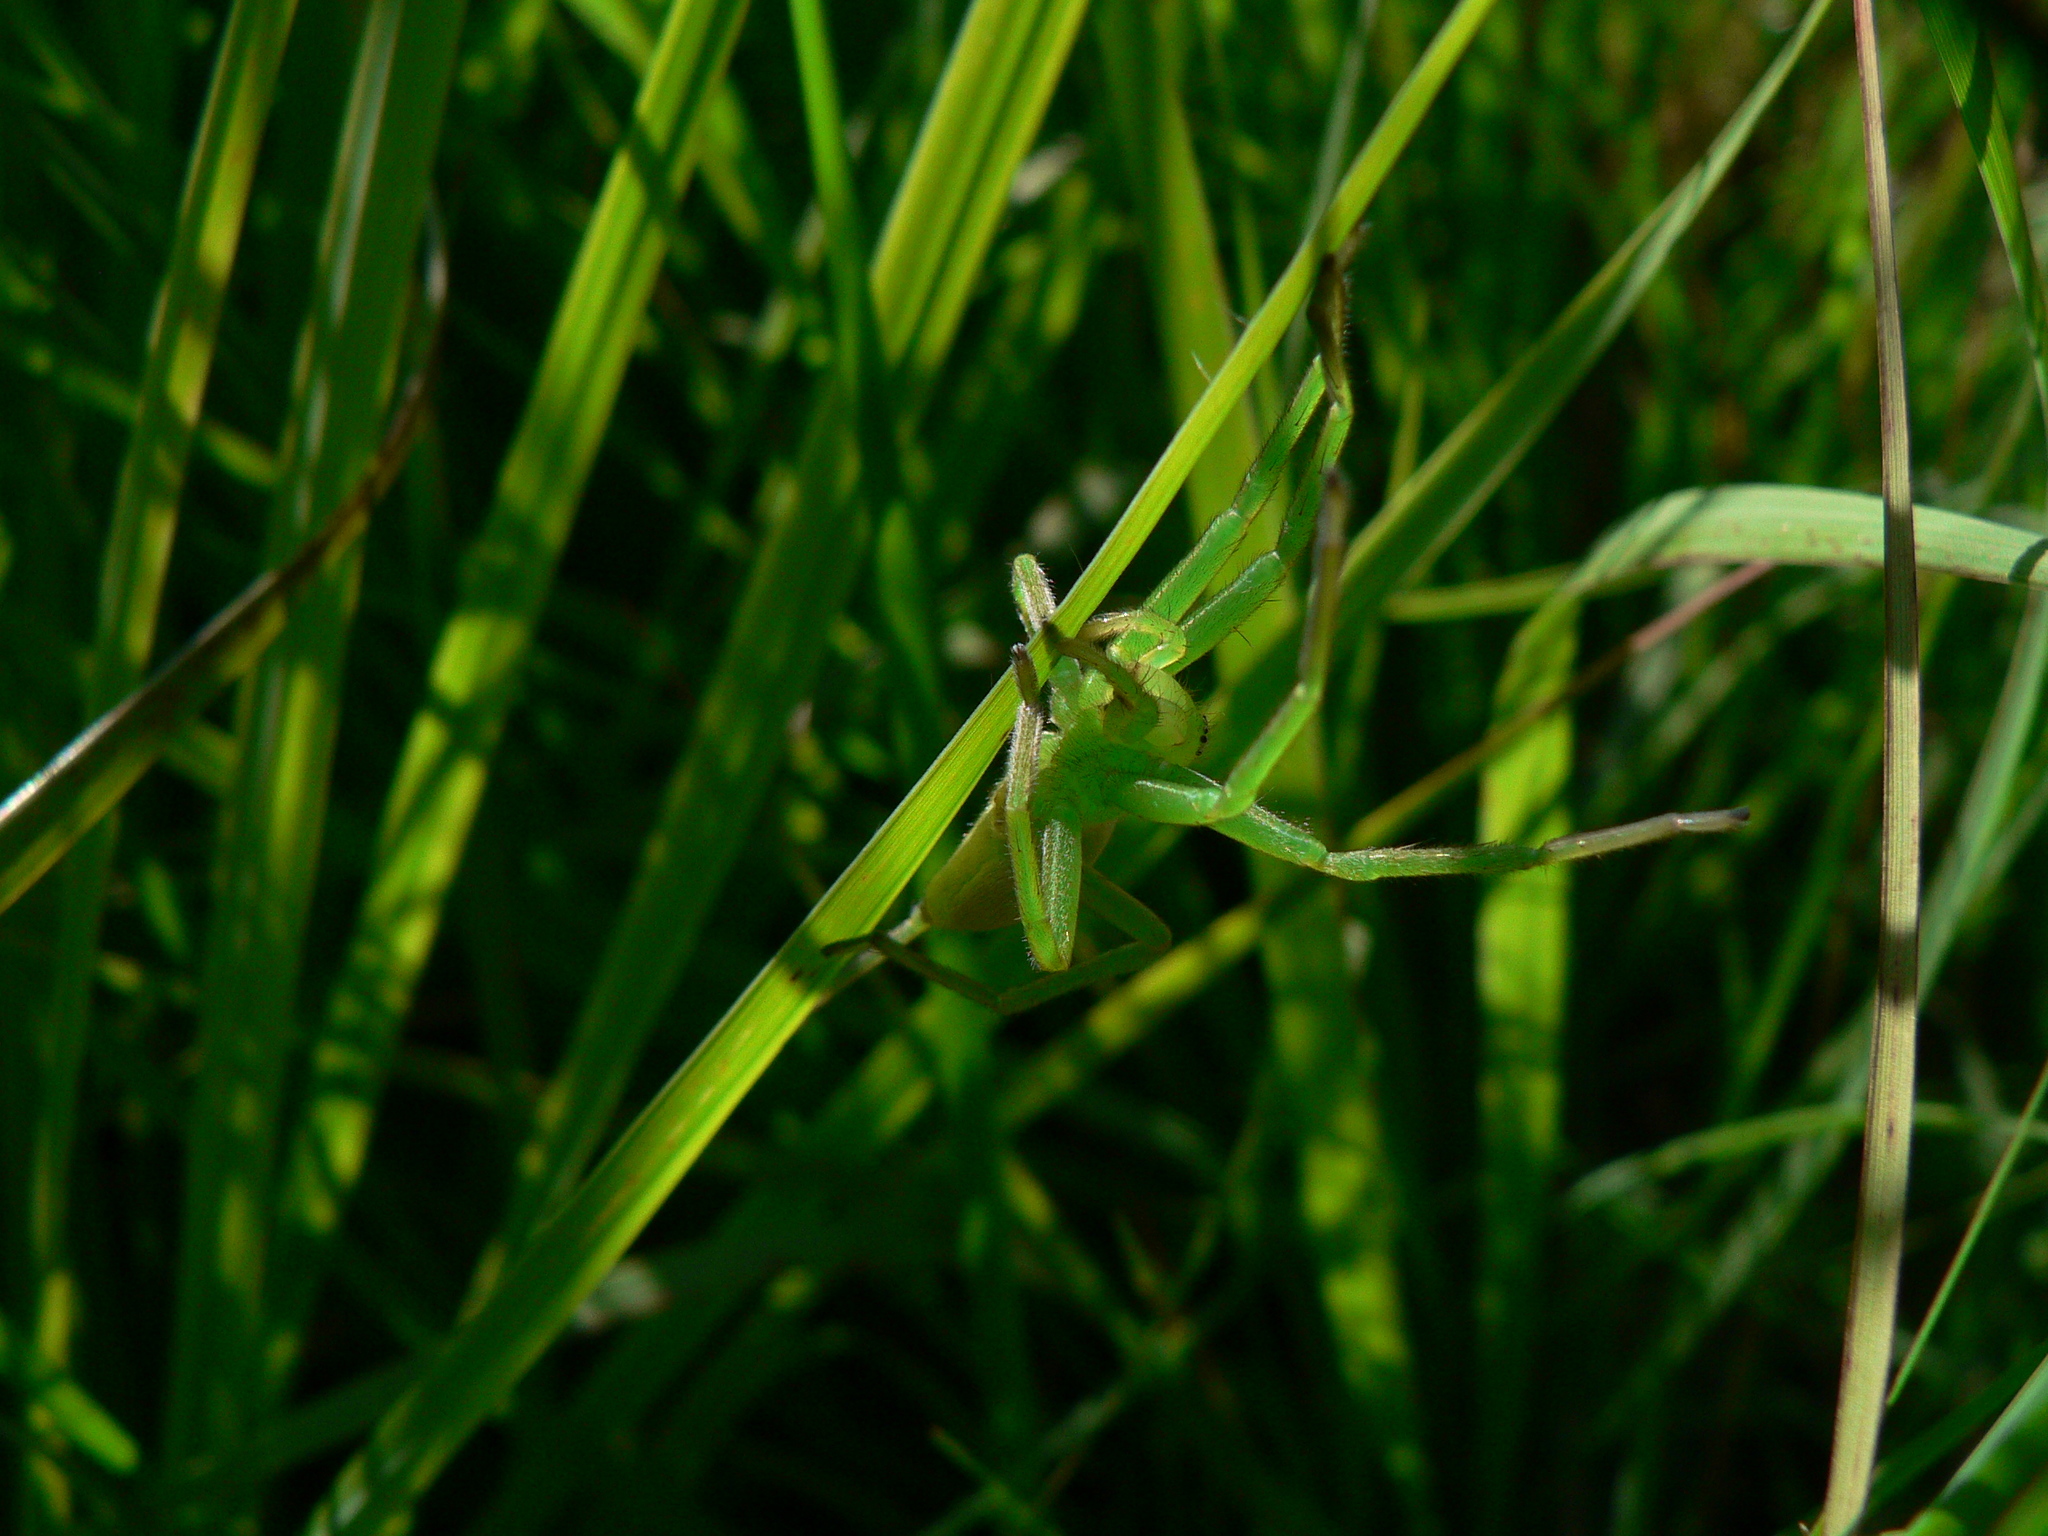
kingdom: Animalia
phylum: Arthropoda
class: Arachnida
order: Araneae
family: Sparassidae
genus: Micrommata
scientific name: Micrommata virescens
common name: Green spider
